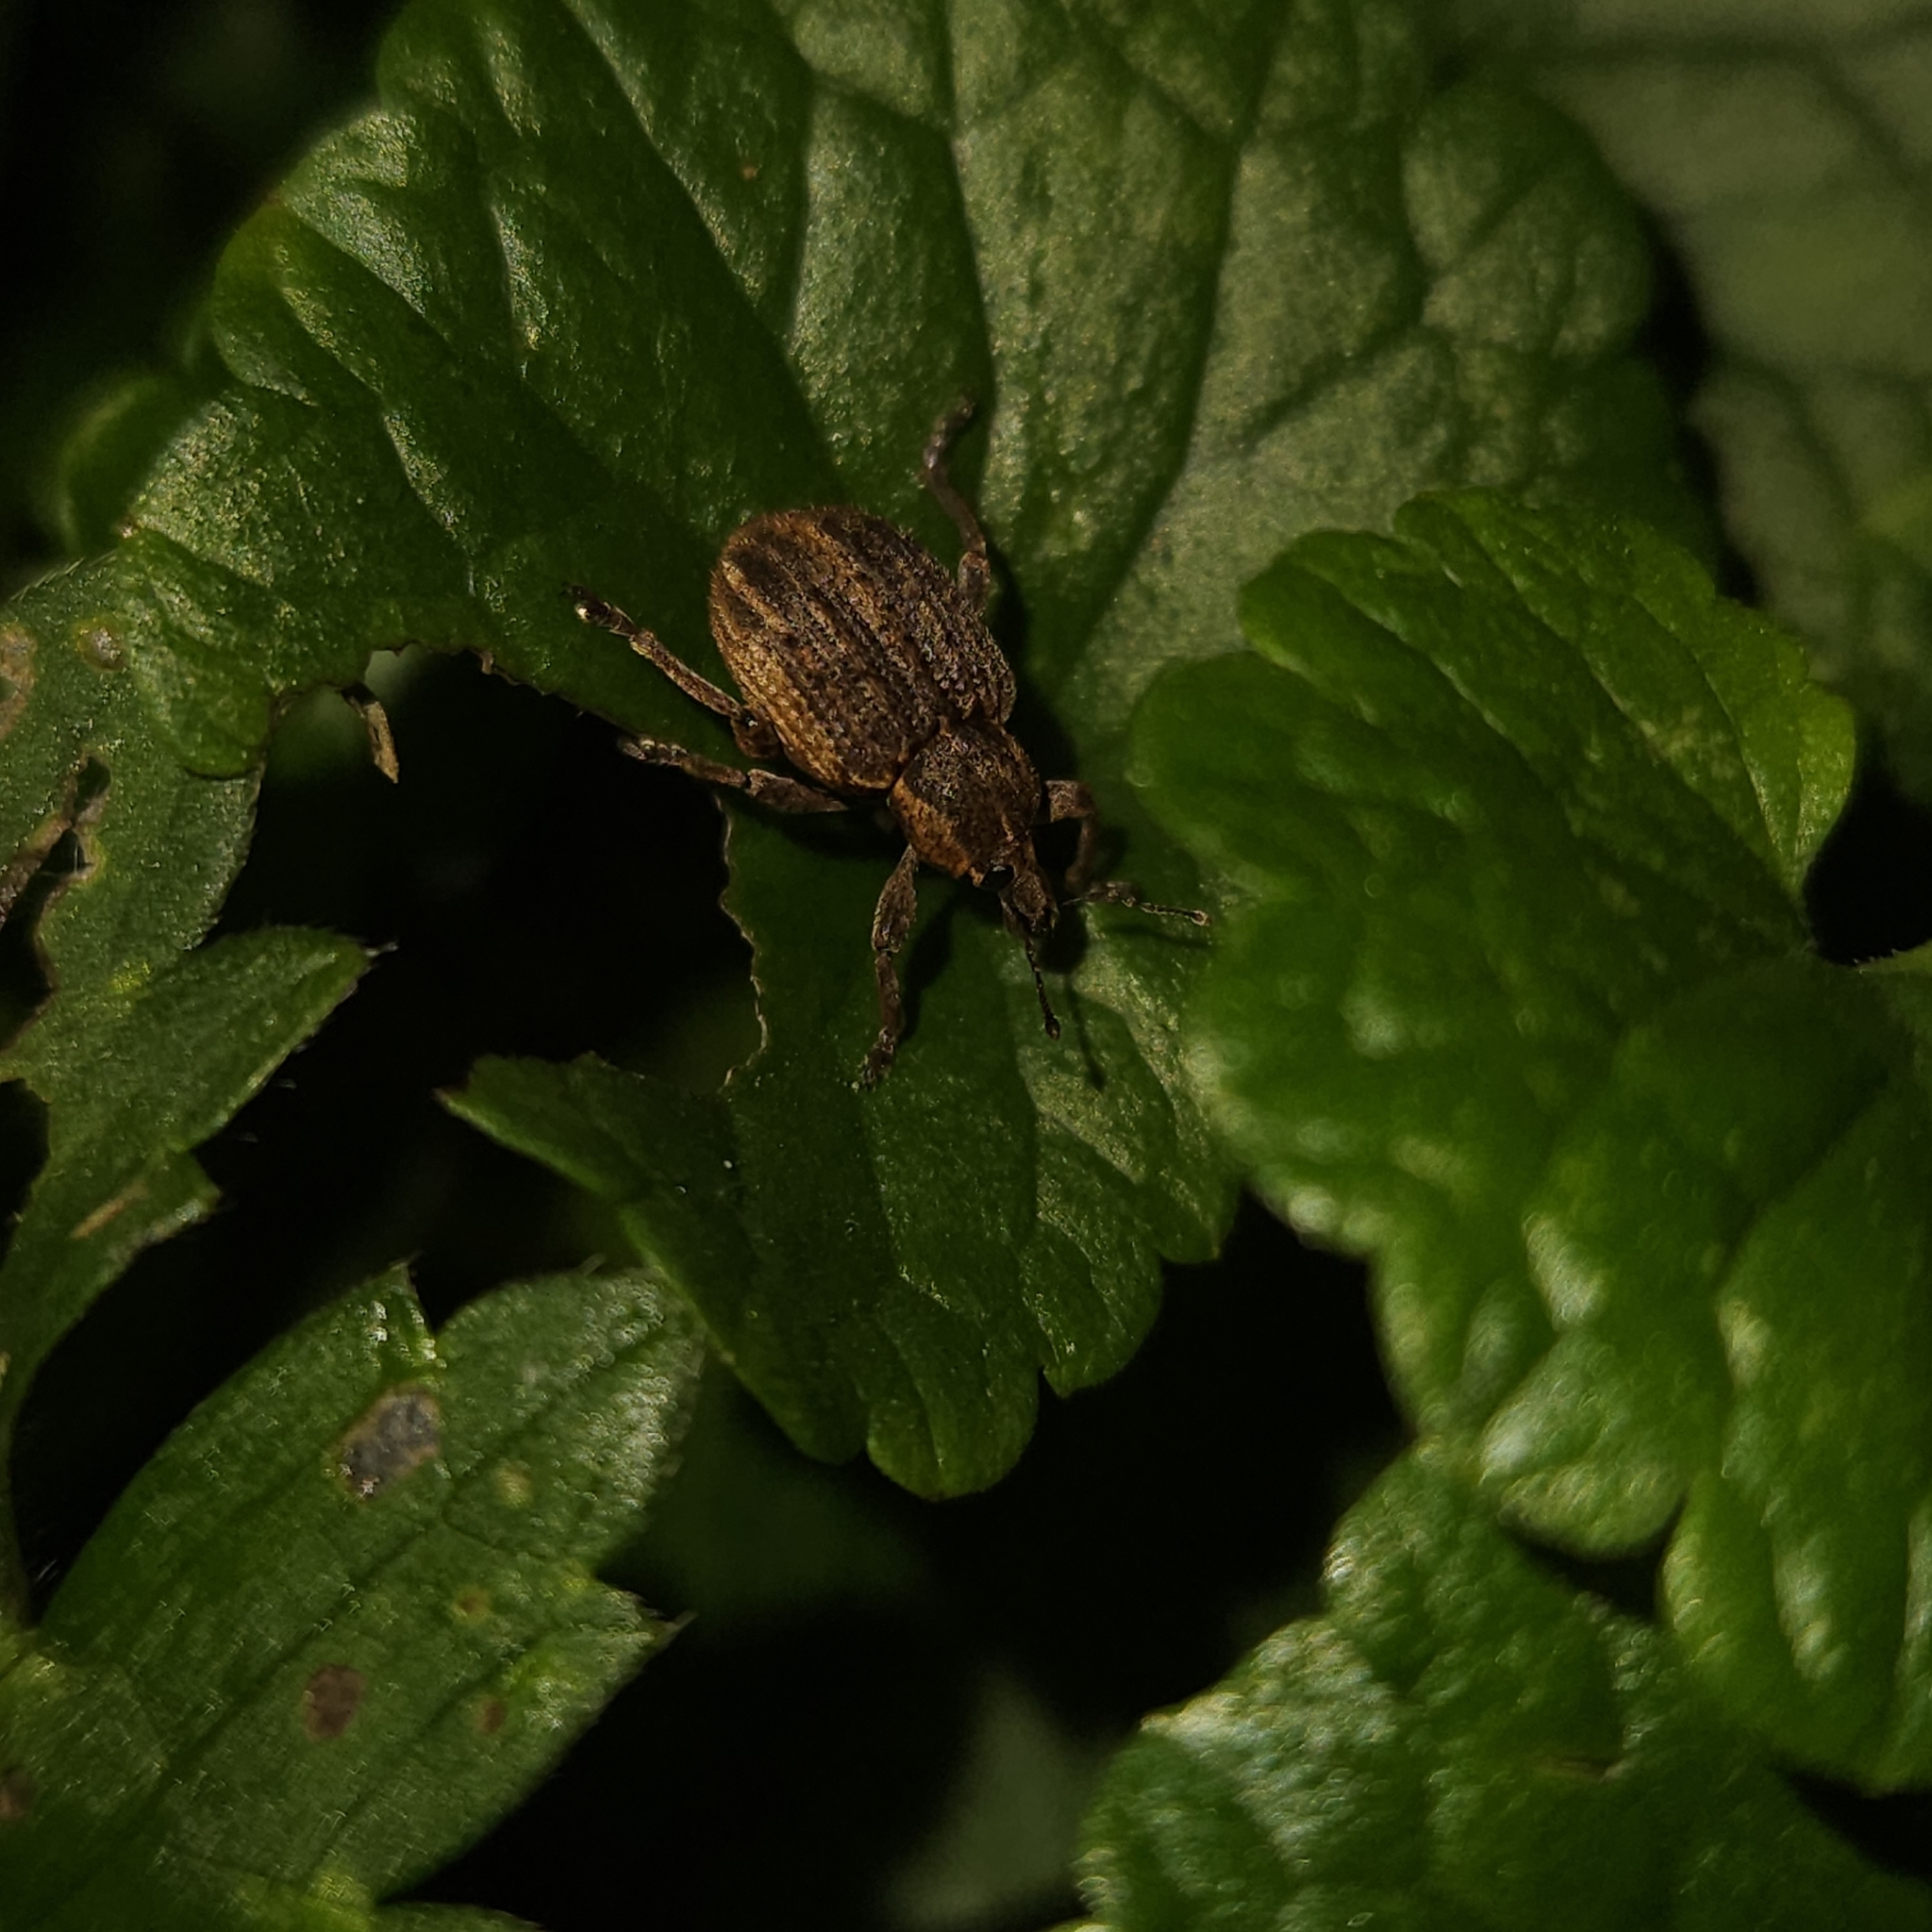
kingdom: Animalia
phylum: Arthropoda
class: Insecta
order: Coleoptera
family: Curculionidae
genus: Brachypera
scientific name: Brachypera zoilus
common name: Clover leaf weevil
